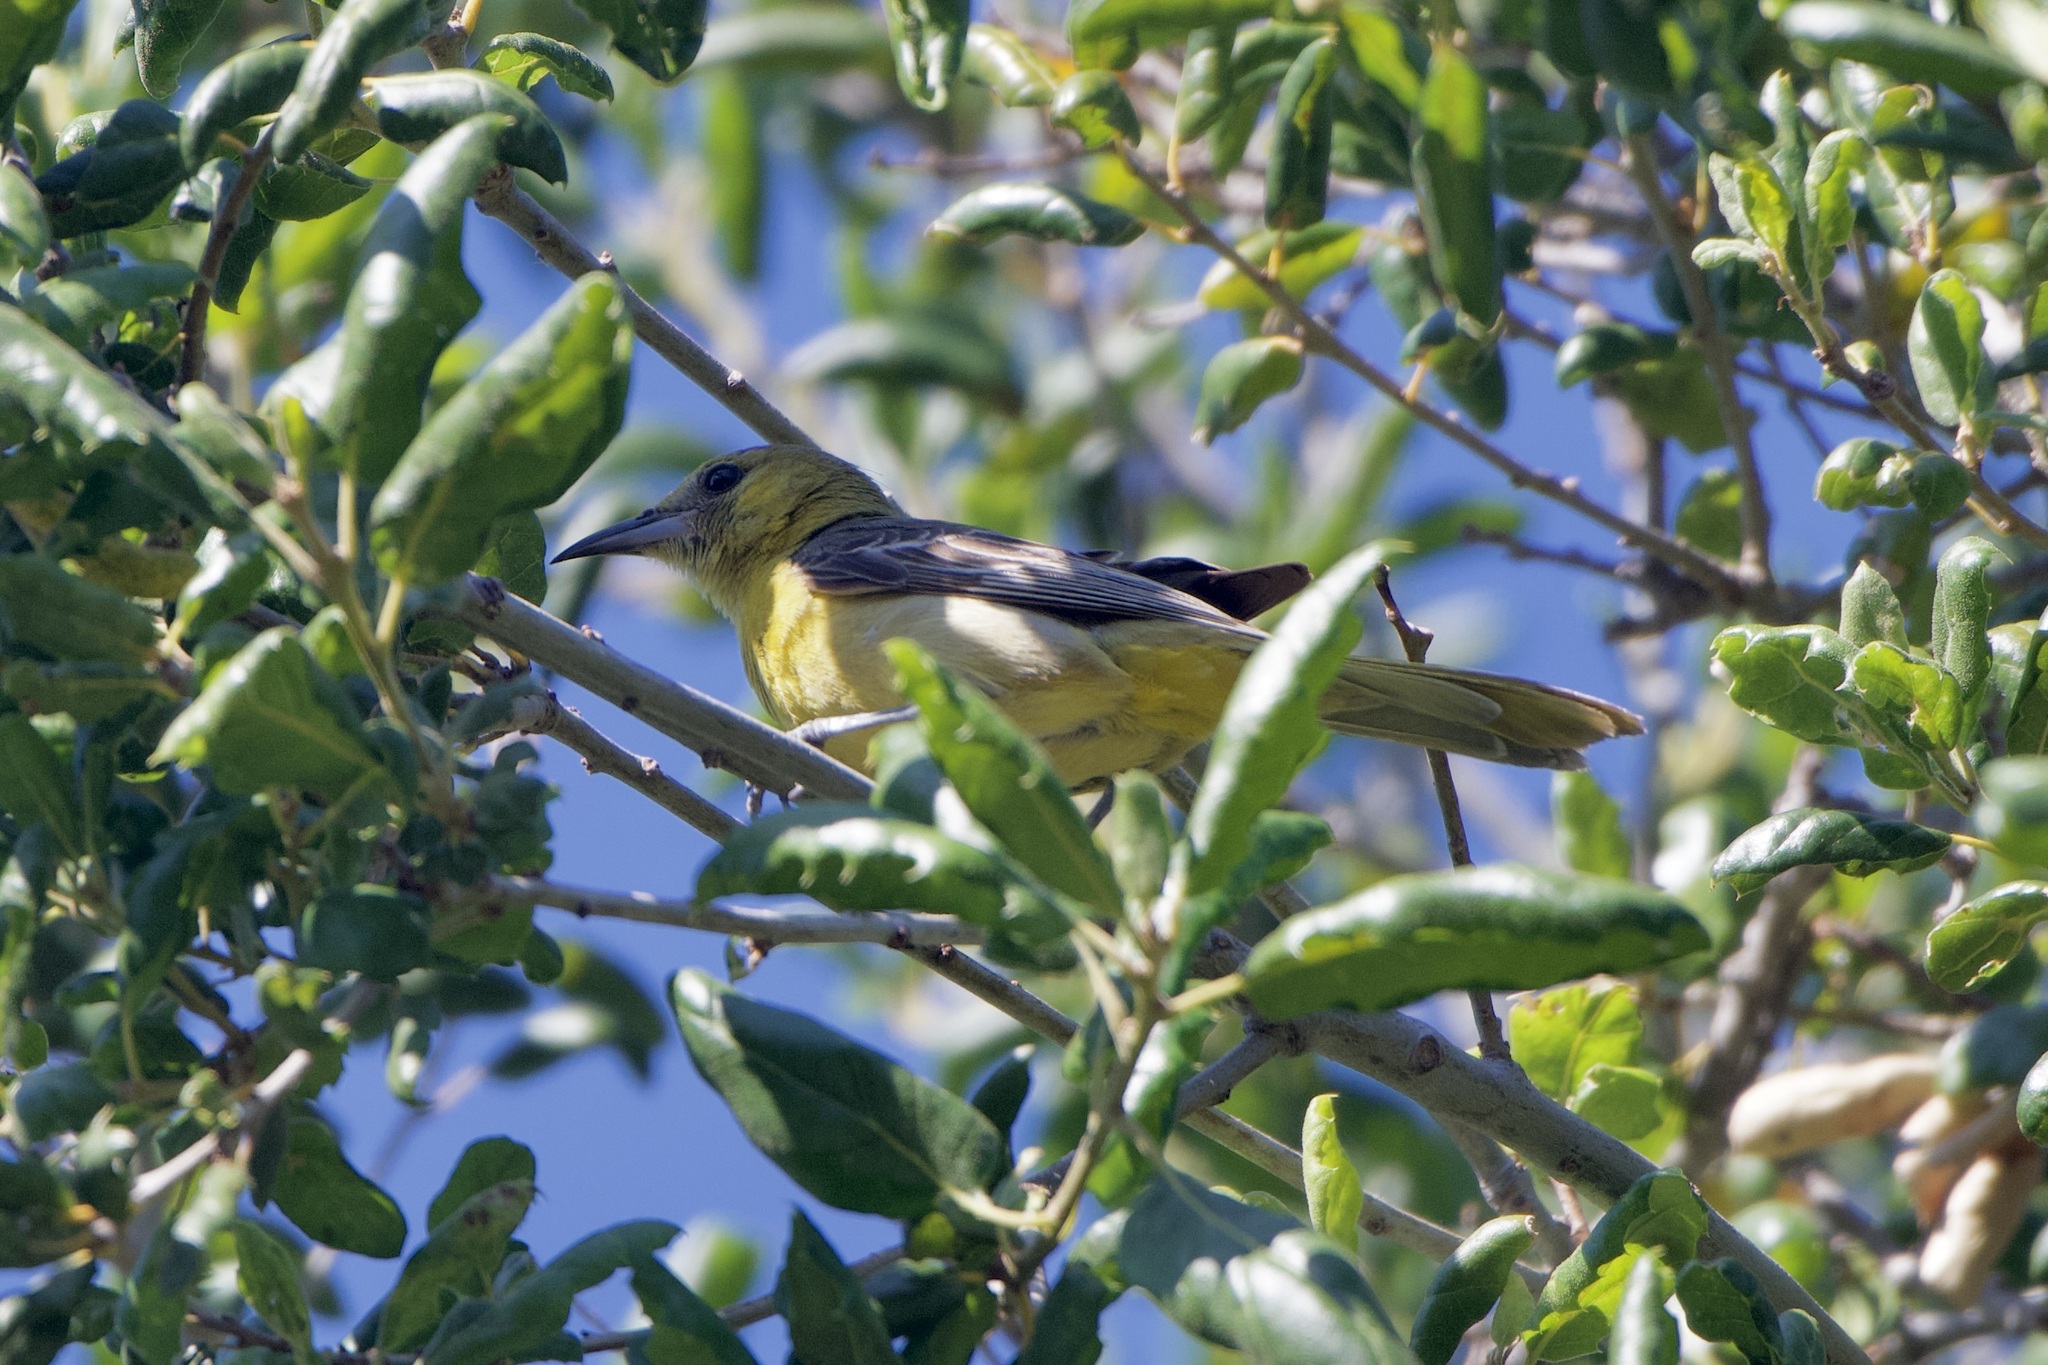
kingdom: Animalia
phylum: Chordata
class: Aves
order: Passeriformes
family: Icteridae
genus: Icterus
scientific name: Icterus cucullatus
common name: Hooded oriole
